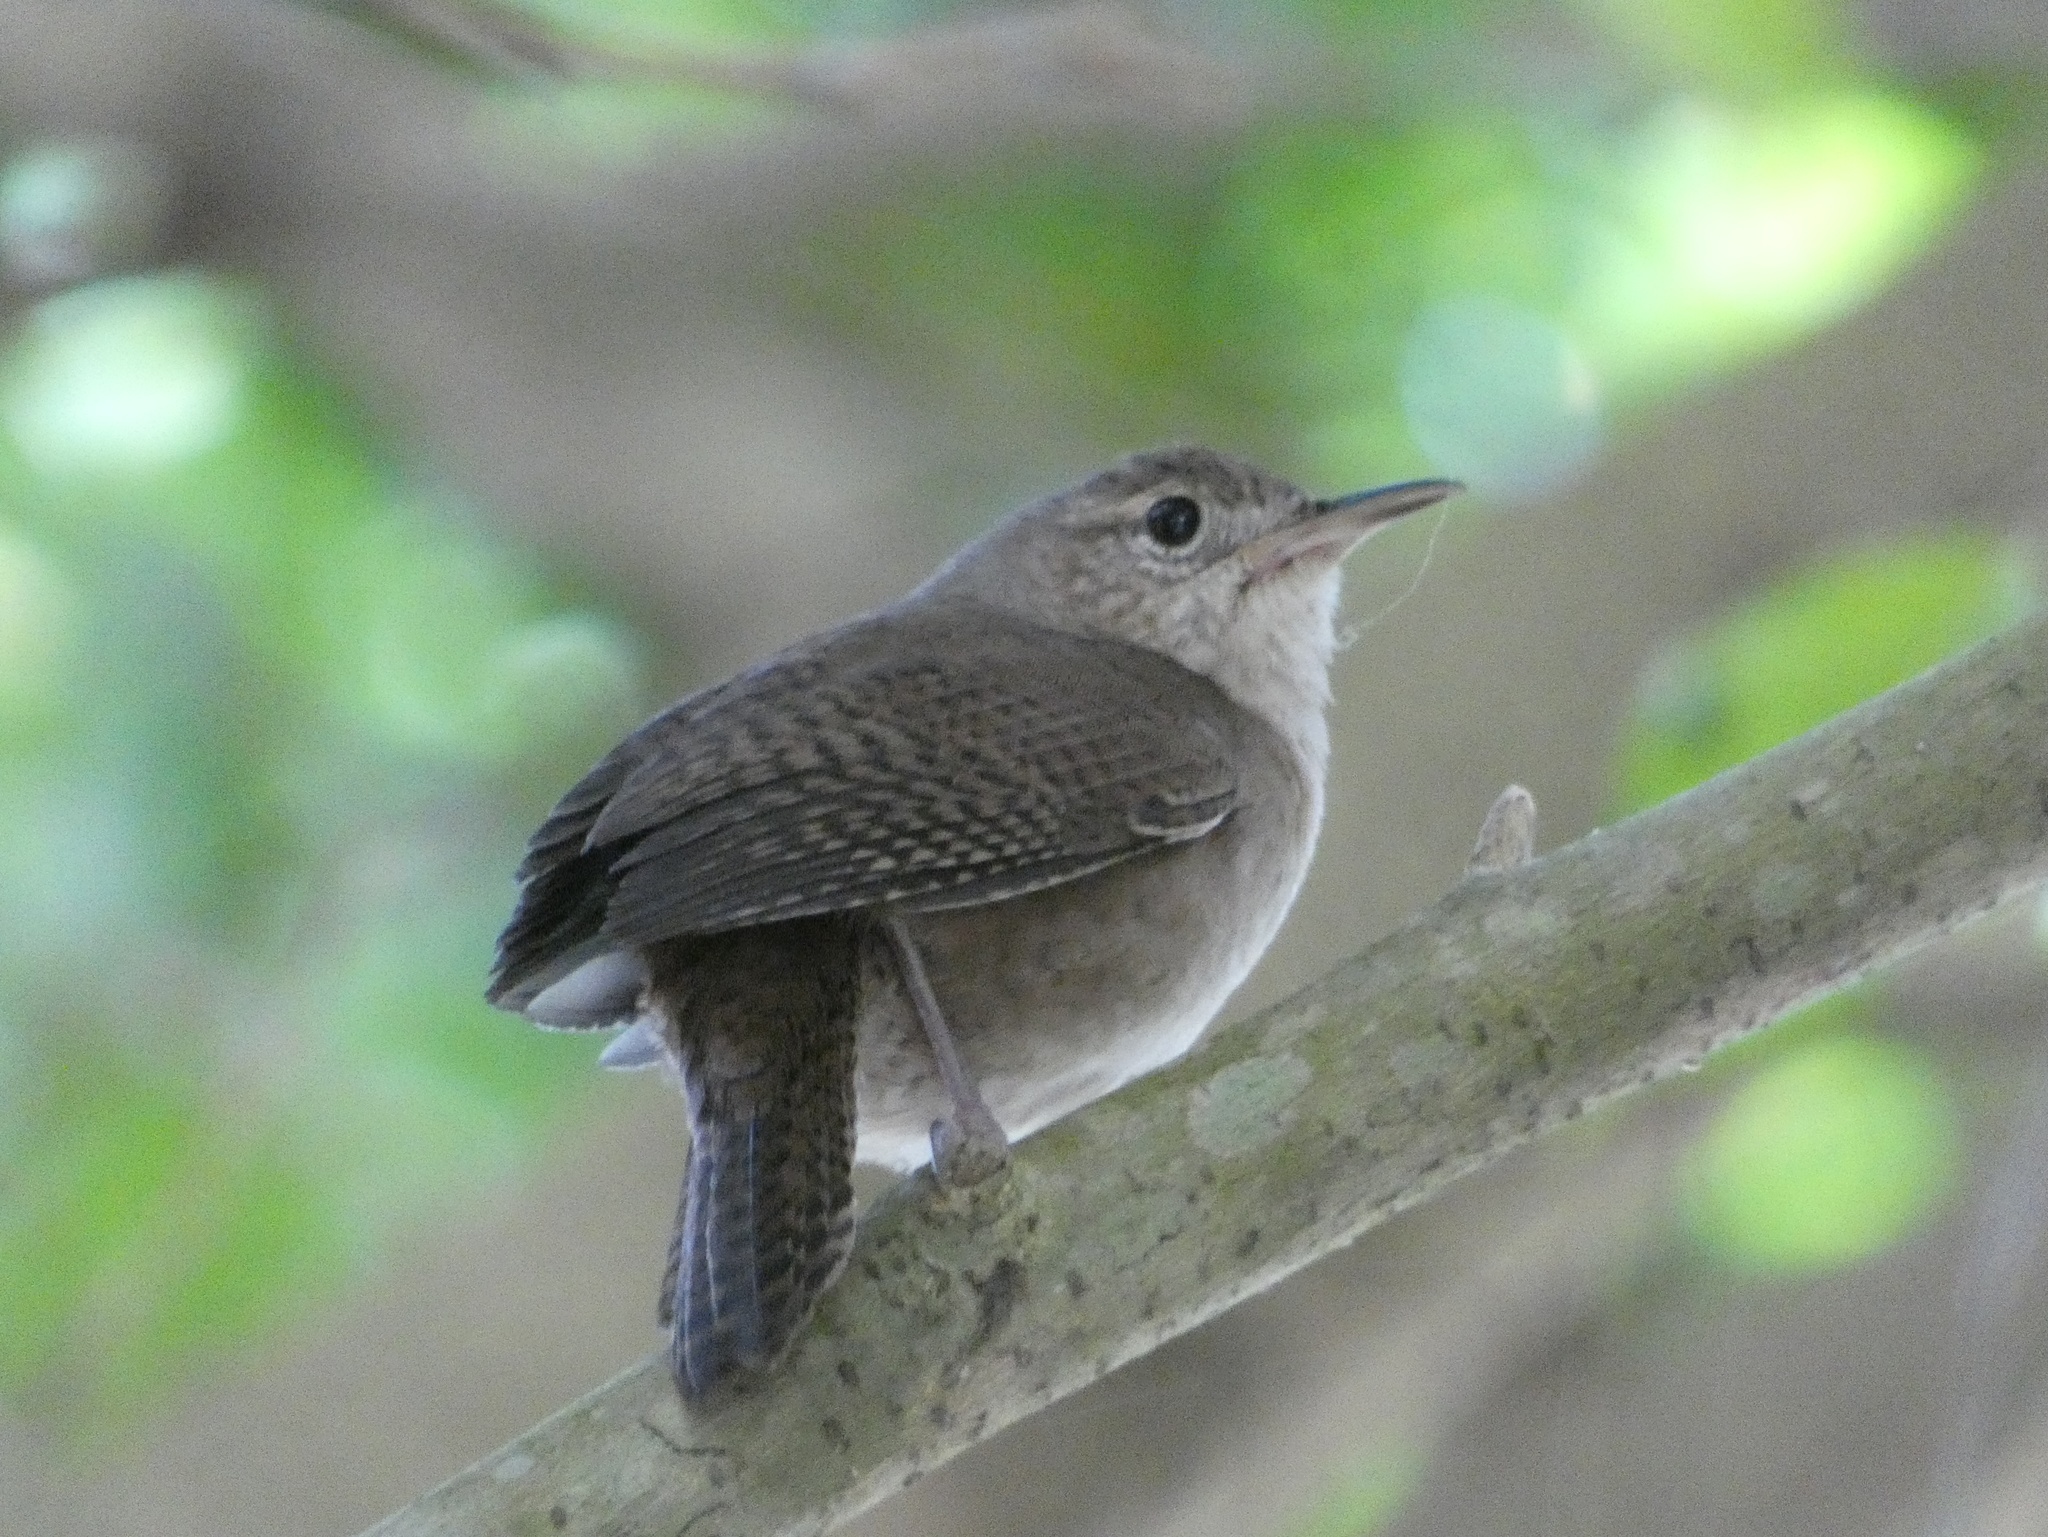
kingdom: Animalia
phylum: Chordata
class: Aves
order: Passeriformes
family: Troglodytidae
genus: Troglodytes
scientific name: Troglodytes aedon
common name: House wren
